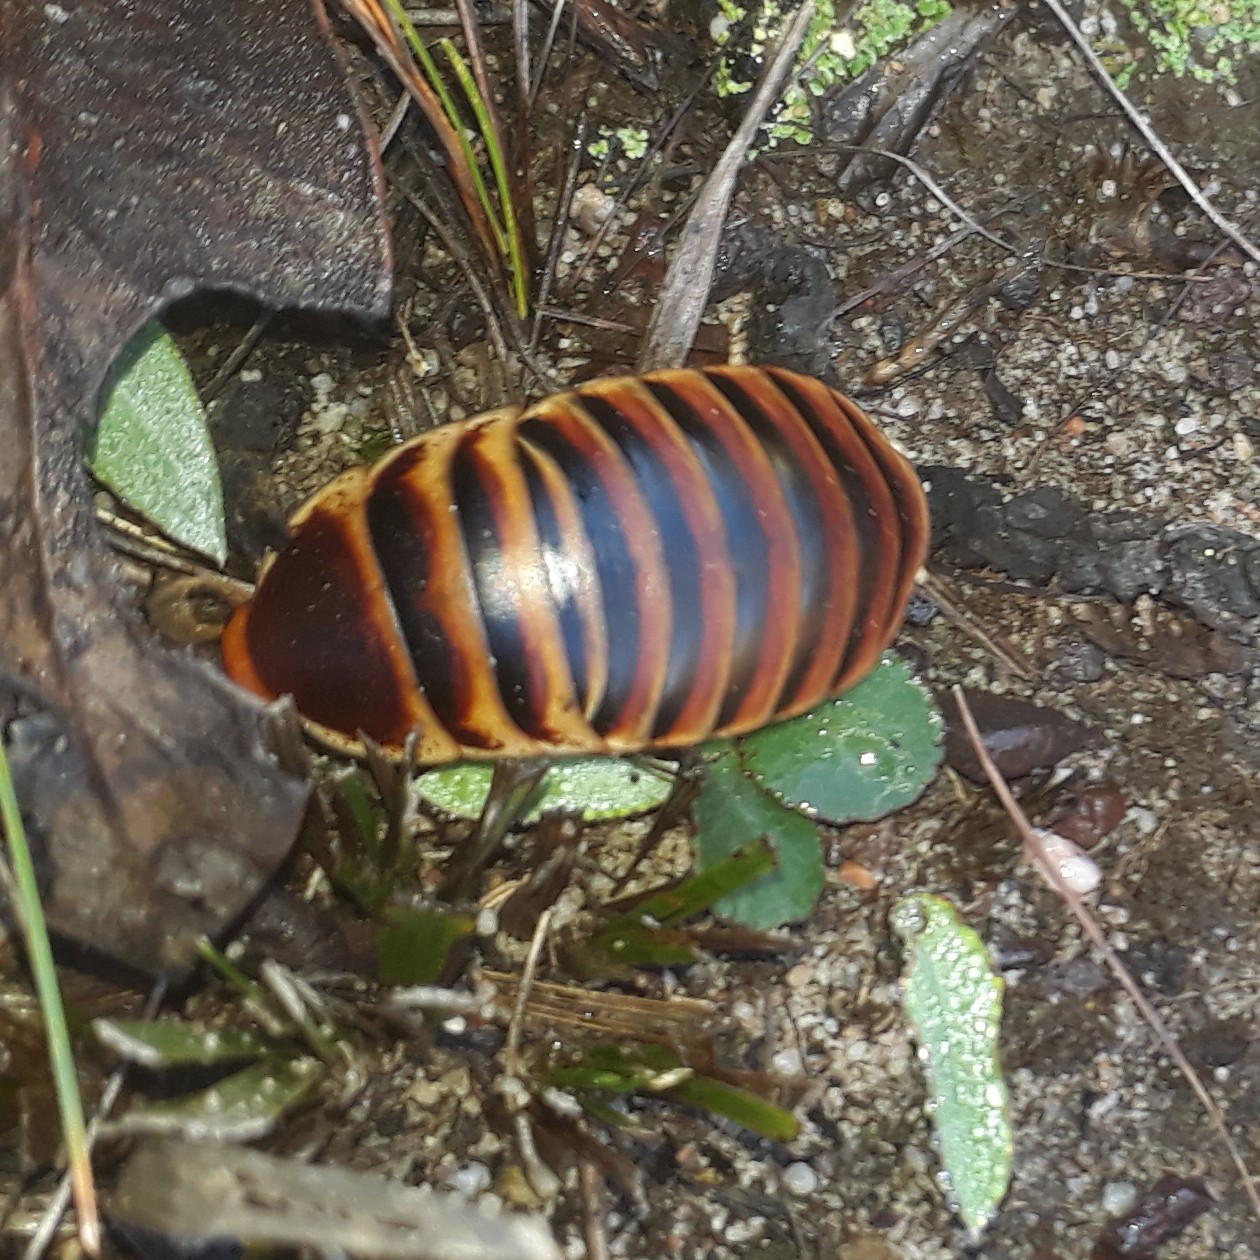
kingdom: Animalia
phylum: Arthropoda
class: Insecta
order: Blattodea
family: Blaberidae
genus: Aptera
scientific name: Aptera fusca
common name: Cape mountain cockroach
